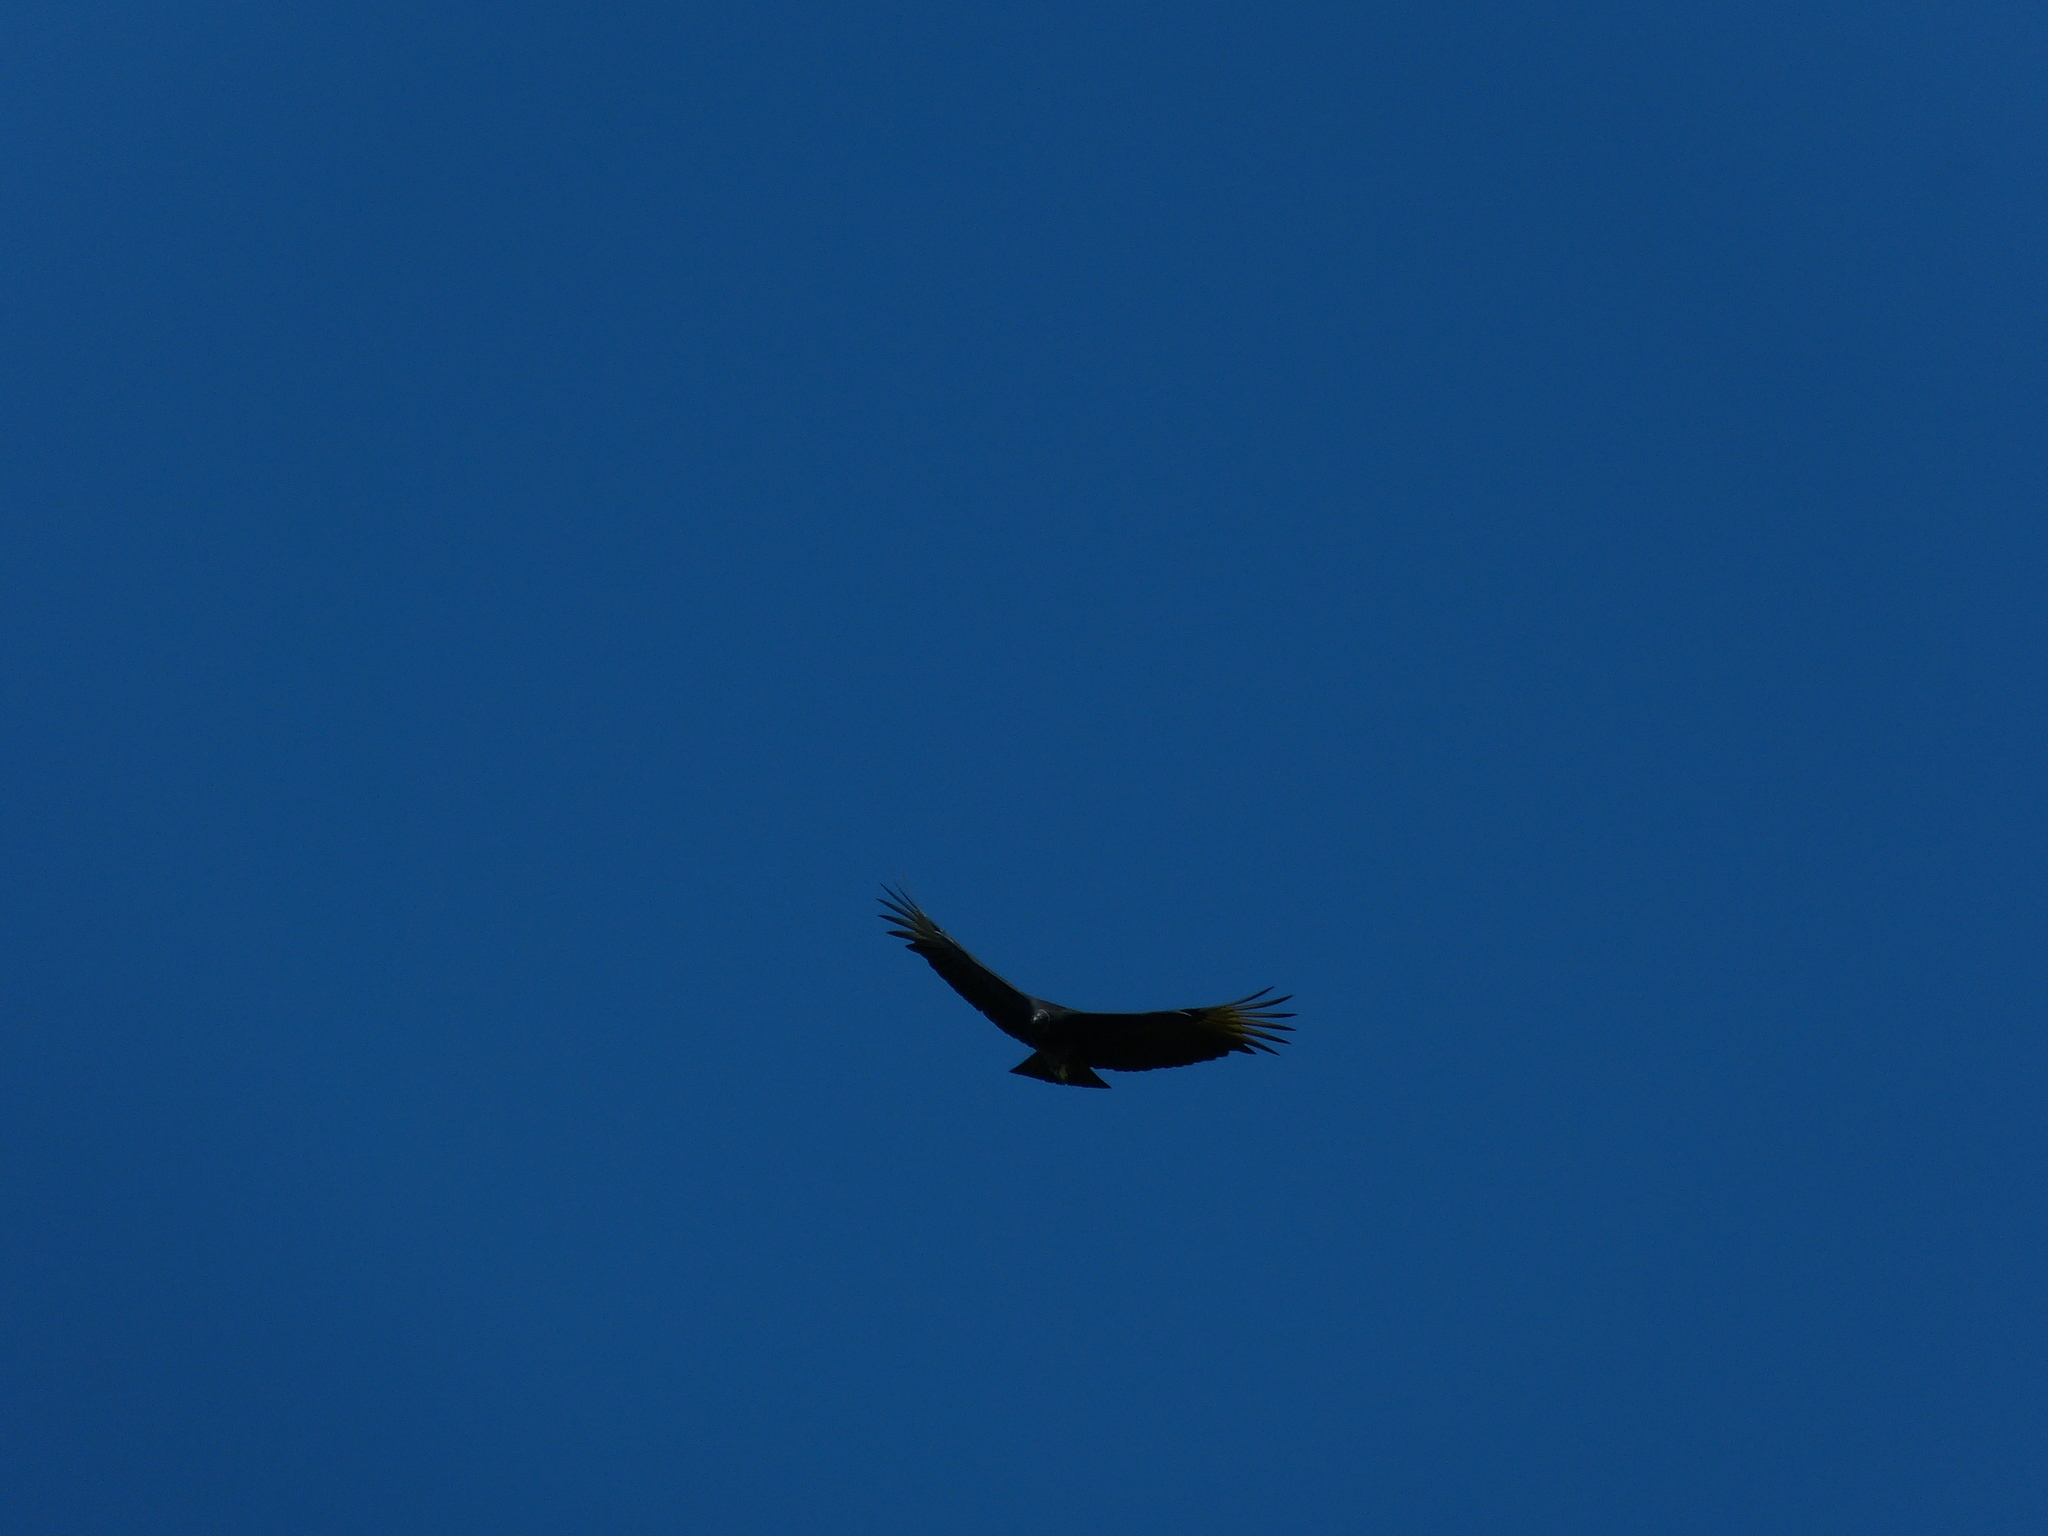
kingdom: Animalia
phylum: Chordata
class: Aves
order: Accipitriformes
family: Cathartidae
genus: Coragyps
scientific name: Coragyps atratus
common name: Black vulture
